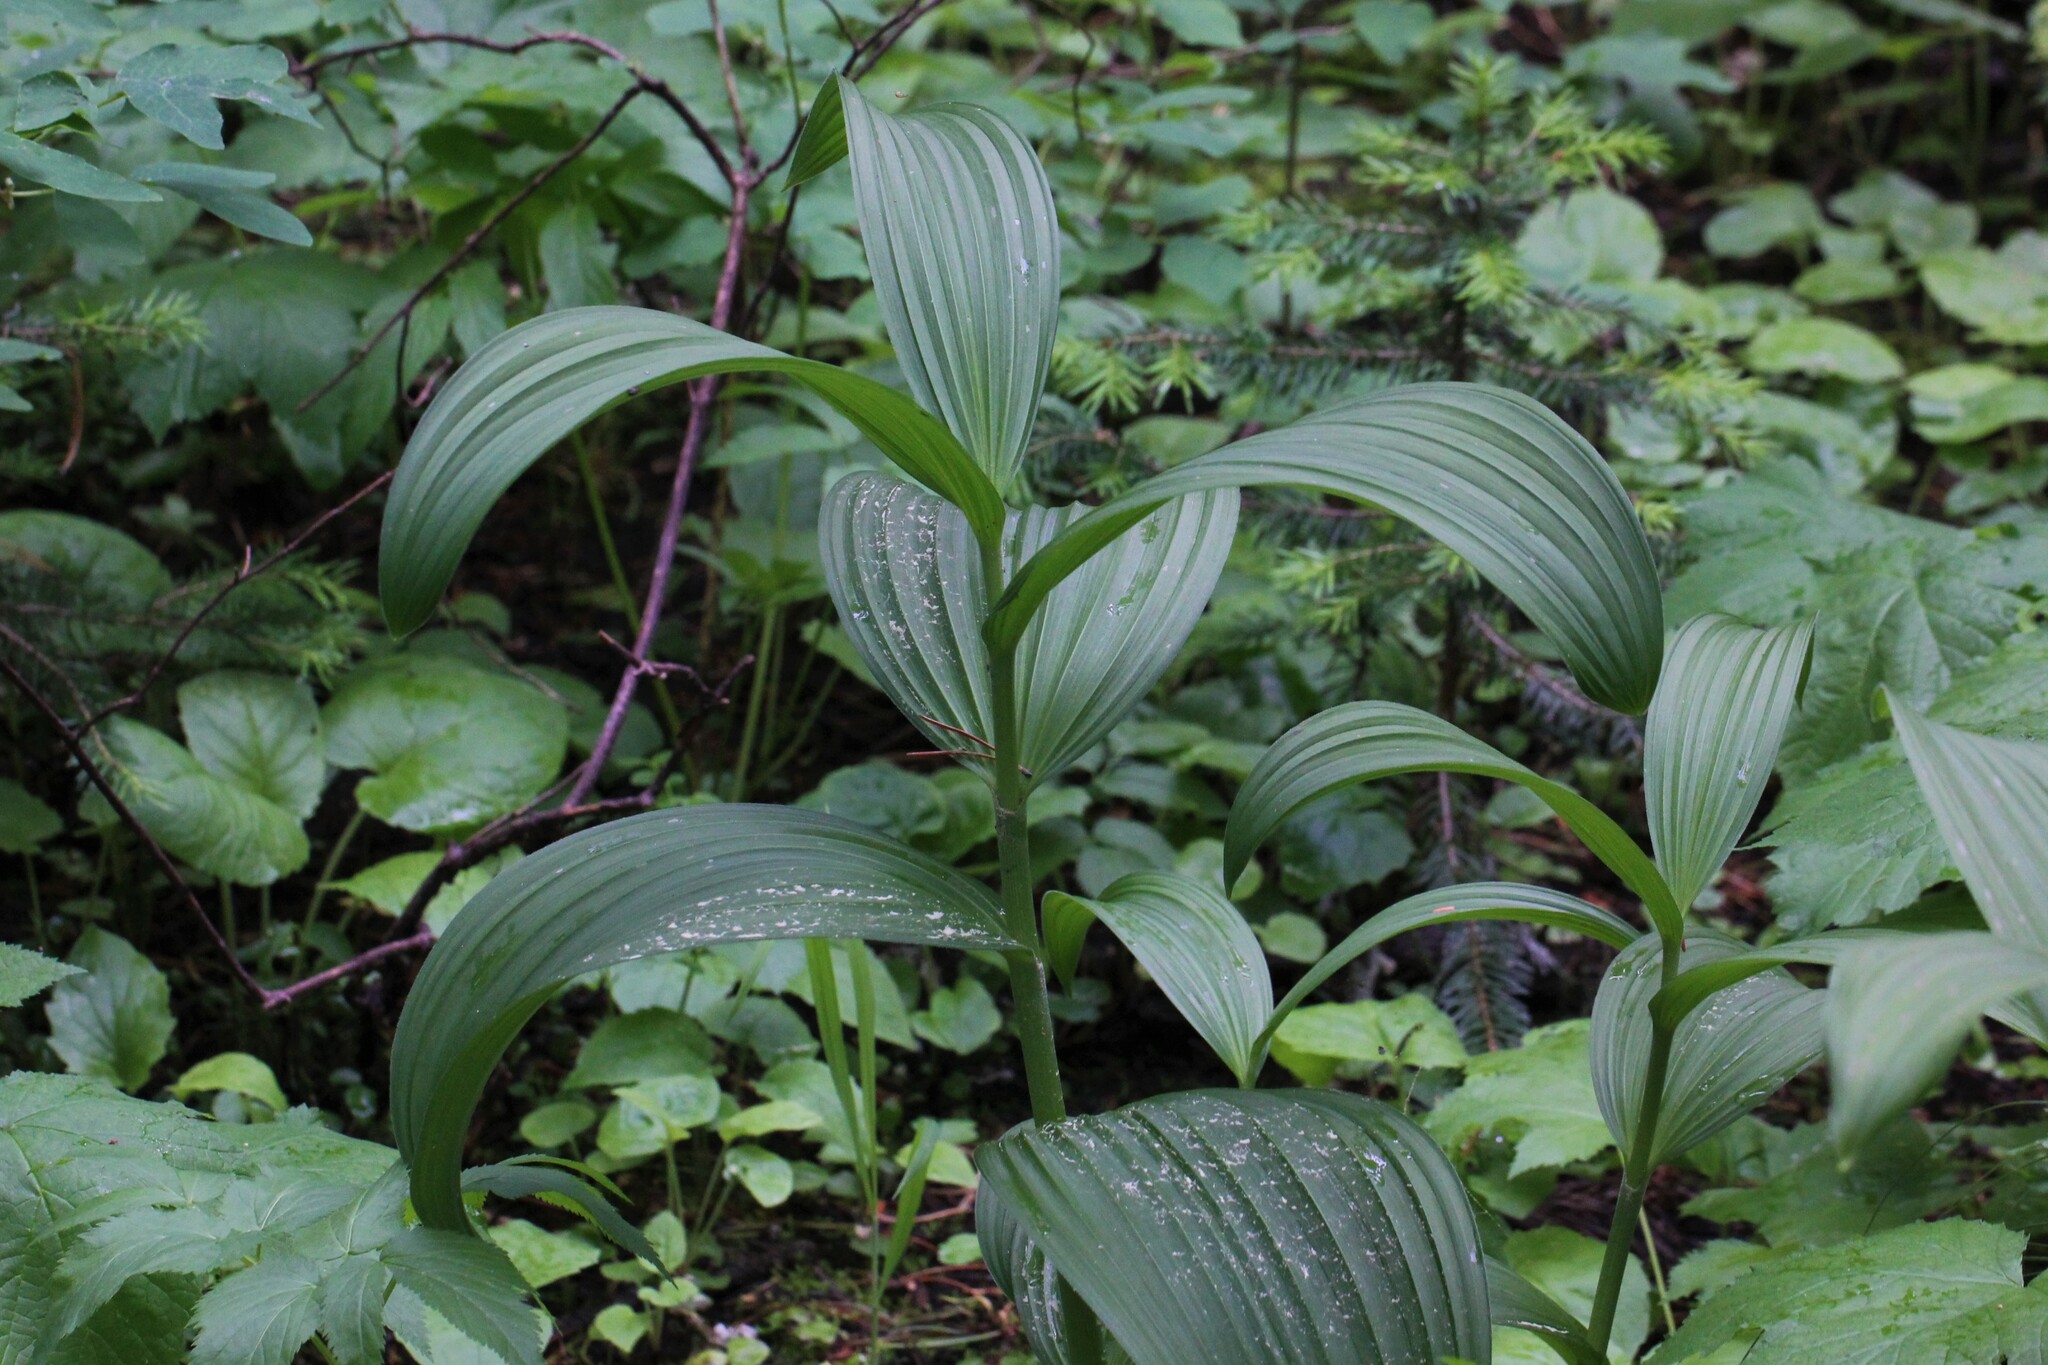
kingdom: Plantae
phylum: Tracheophyta
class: Liliopsida
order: Liliales
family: Melanthiaceae
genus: Veratrum
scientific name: Veratrum viride
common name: American false hellebore
